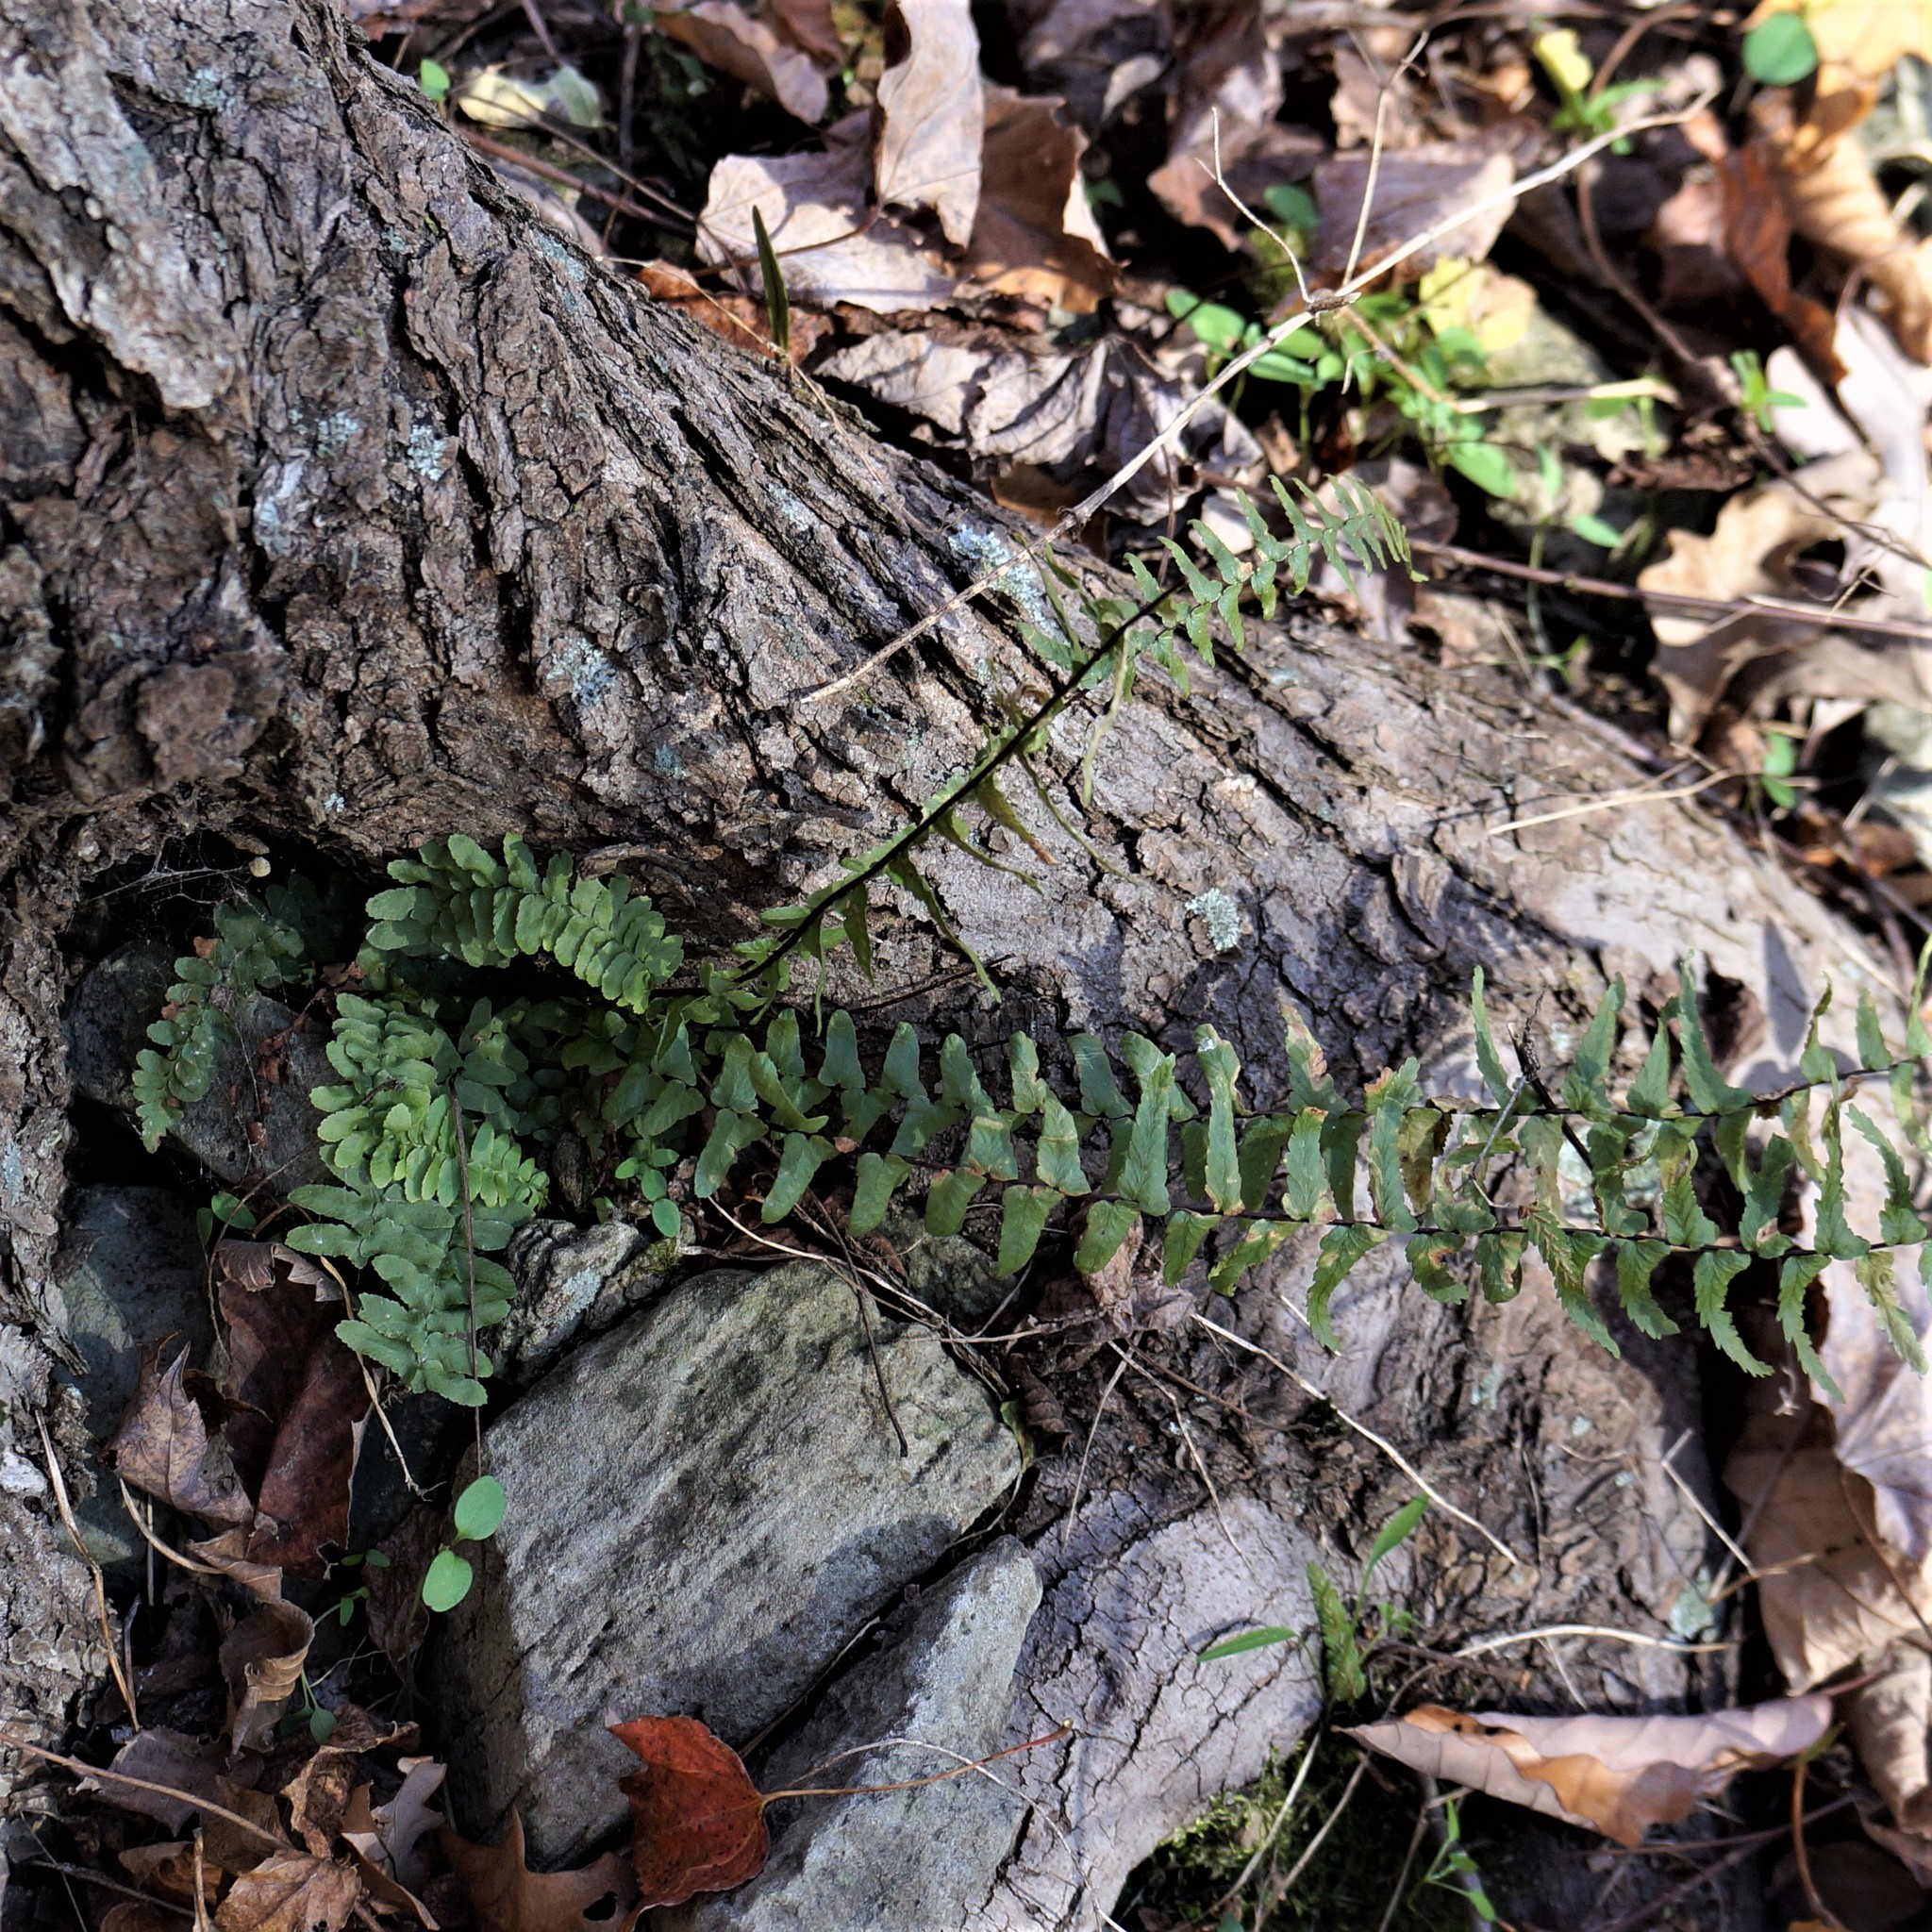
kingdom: Plantae
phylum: Tracheophyta
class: Polypodiopsida
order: Polypodiales
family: Aspleniaceae
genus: Asplenium
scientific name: Asplenium platyneuron
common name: Ebony spleenwort
